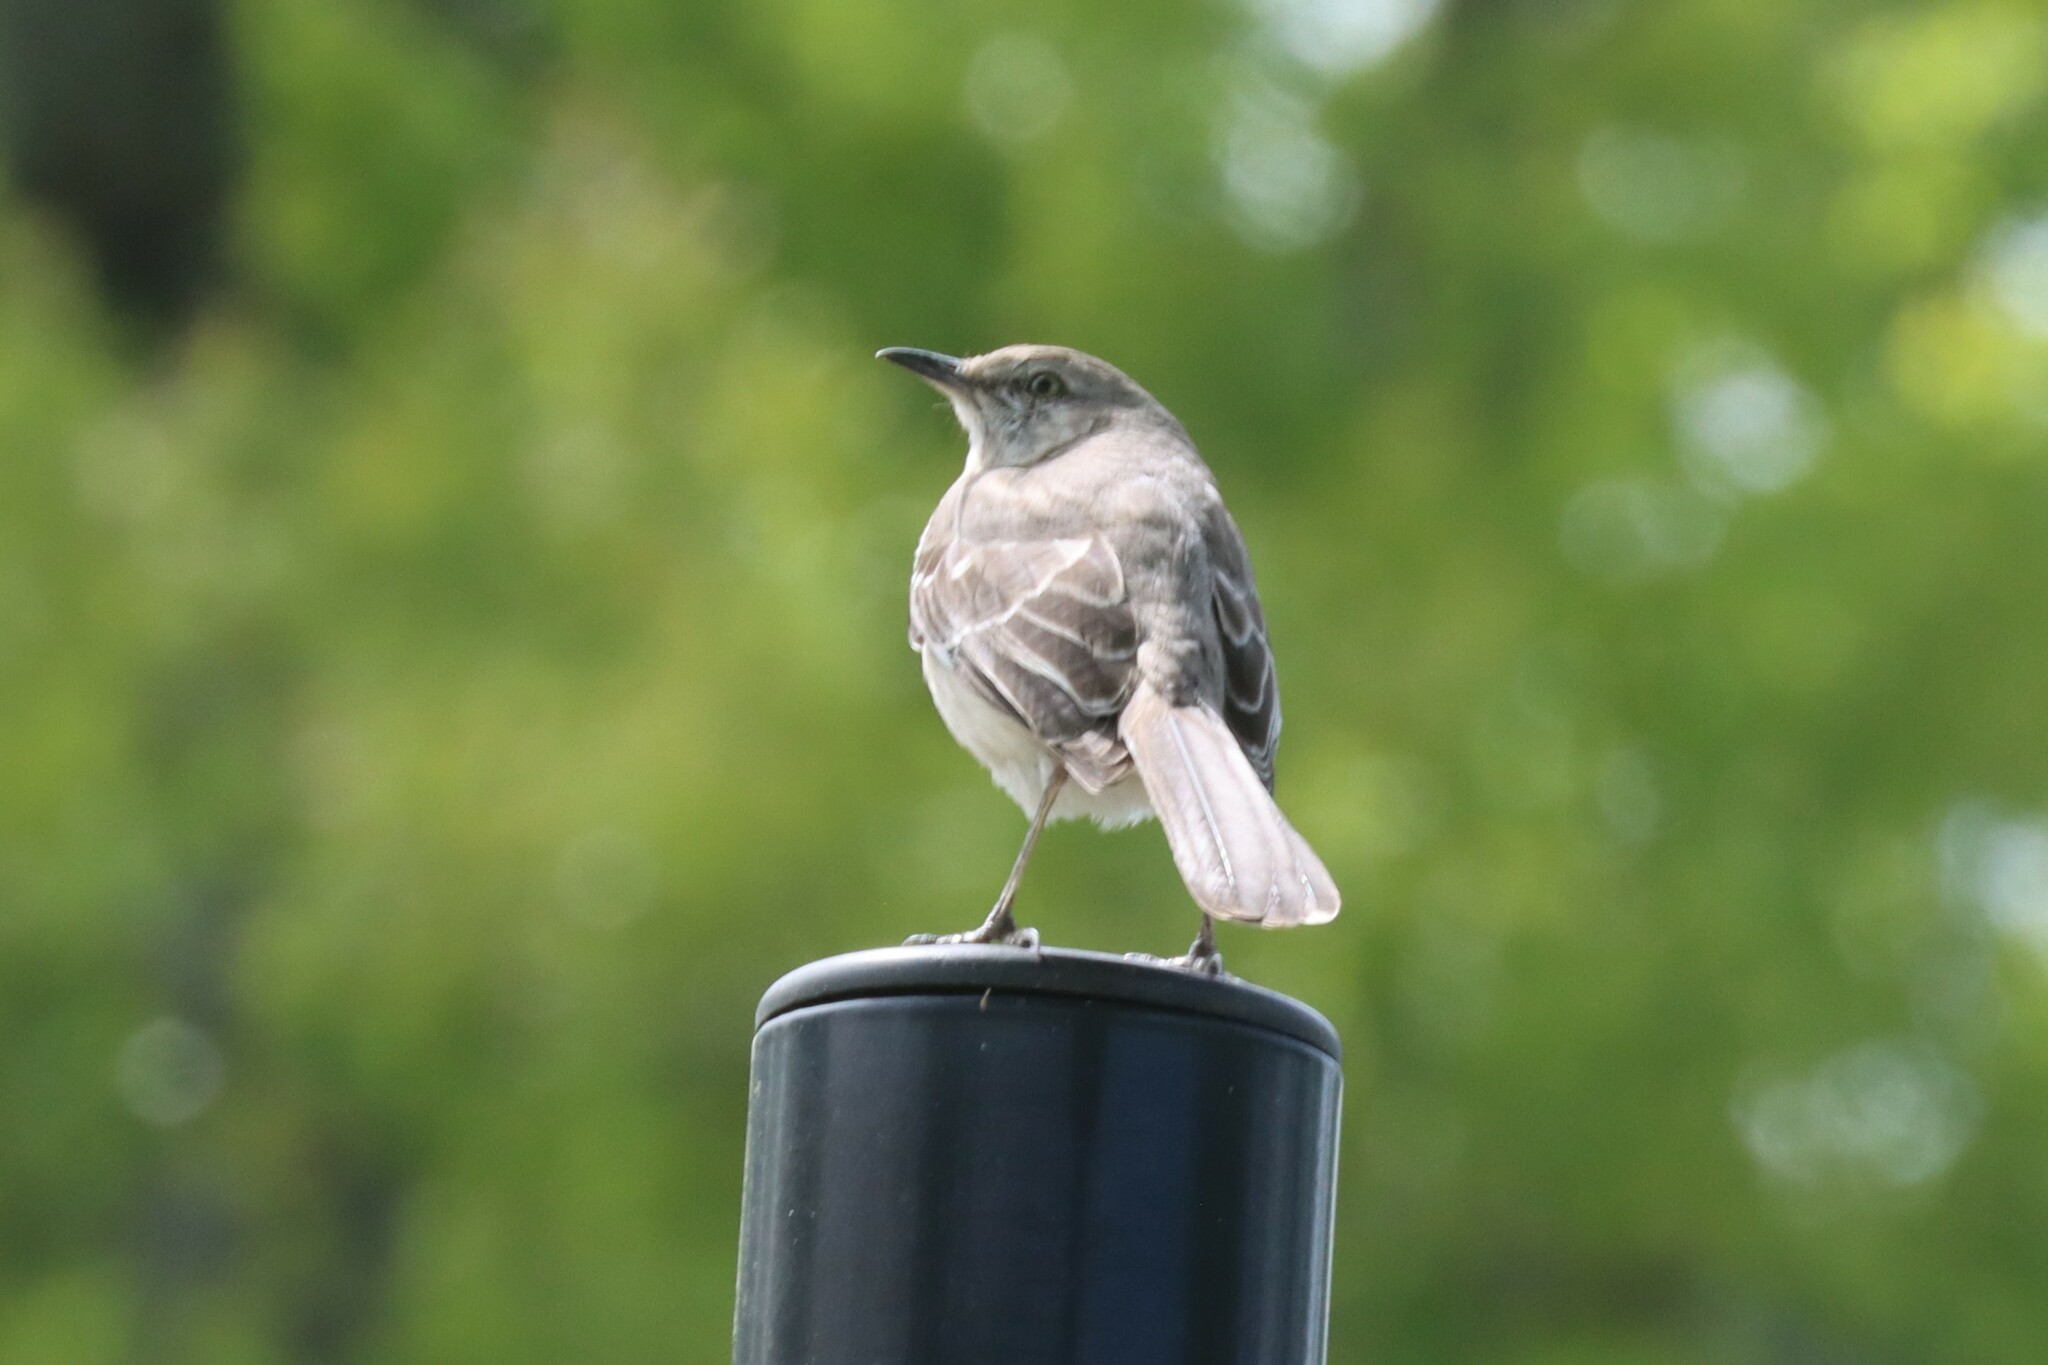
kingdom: Animalia
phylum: Chordata
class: Aves
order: Passeriformes
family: Mimidae
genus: Mimus
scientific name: Mimus polyglottos
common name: Northern mockingbird
